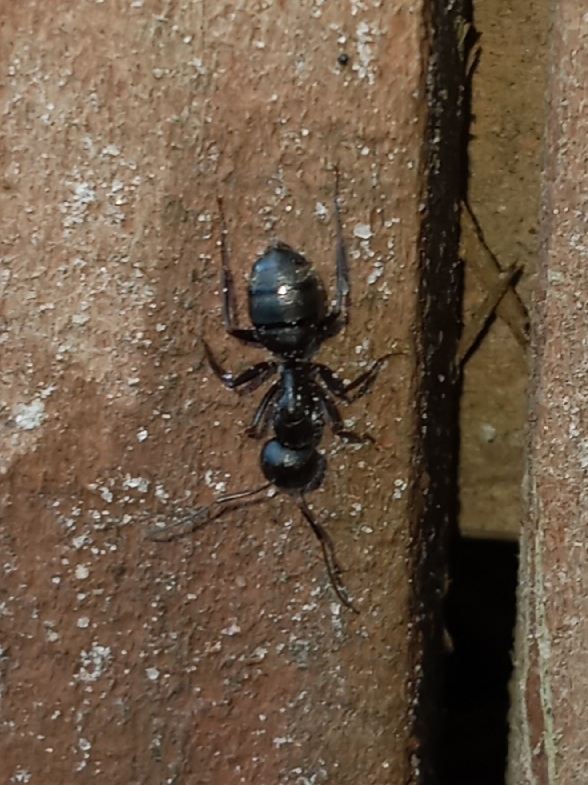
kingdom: Animalia
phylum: Arthropoda
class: Insecta
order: Hymenoptera
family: Formicidae
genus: Camponotus
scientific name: Camponotus pennsylvanicus
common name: Black carpenter ant
